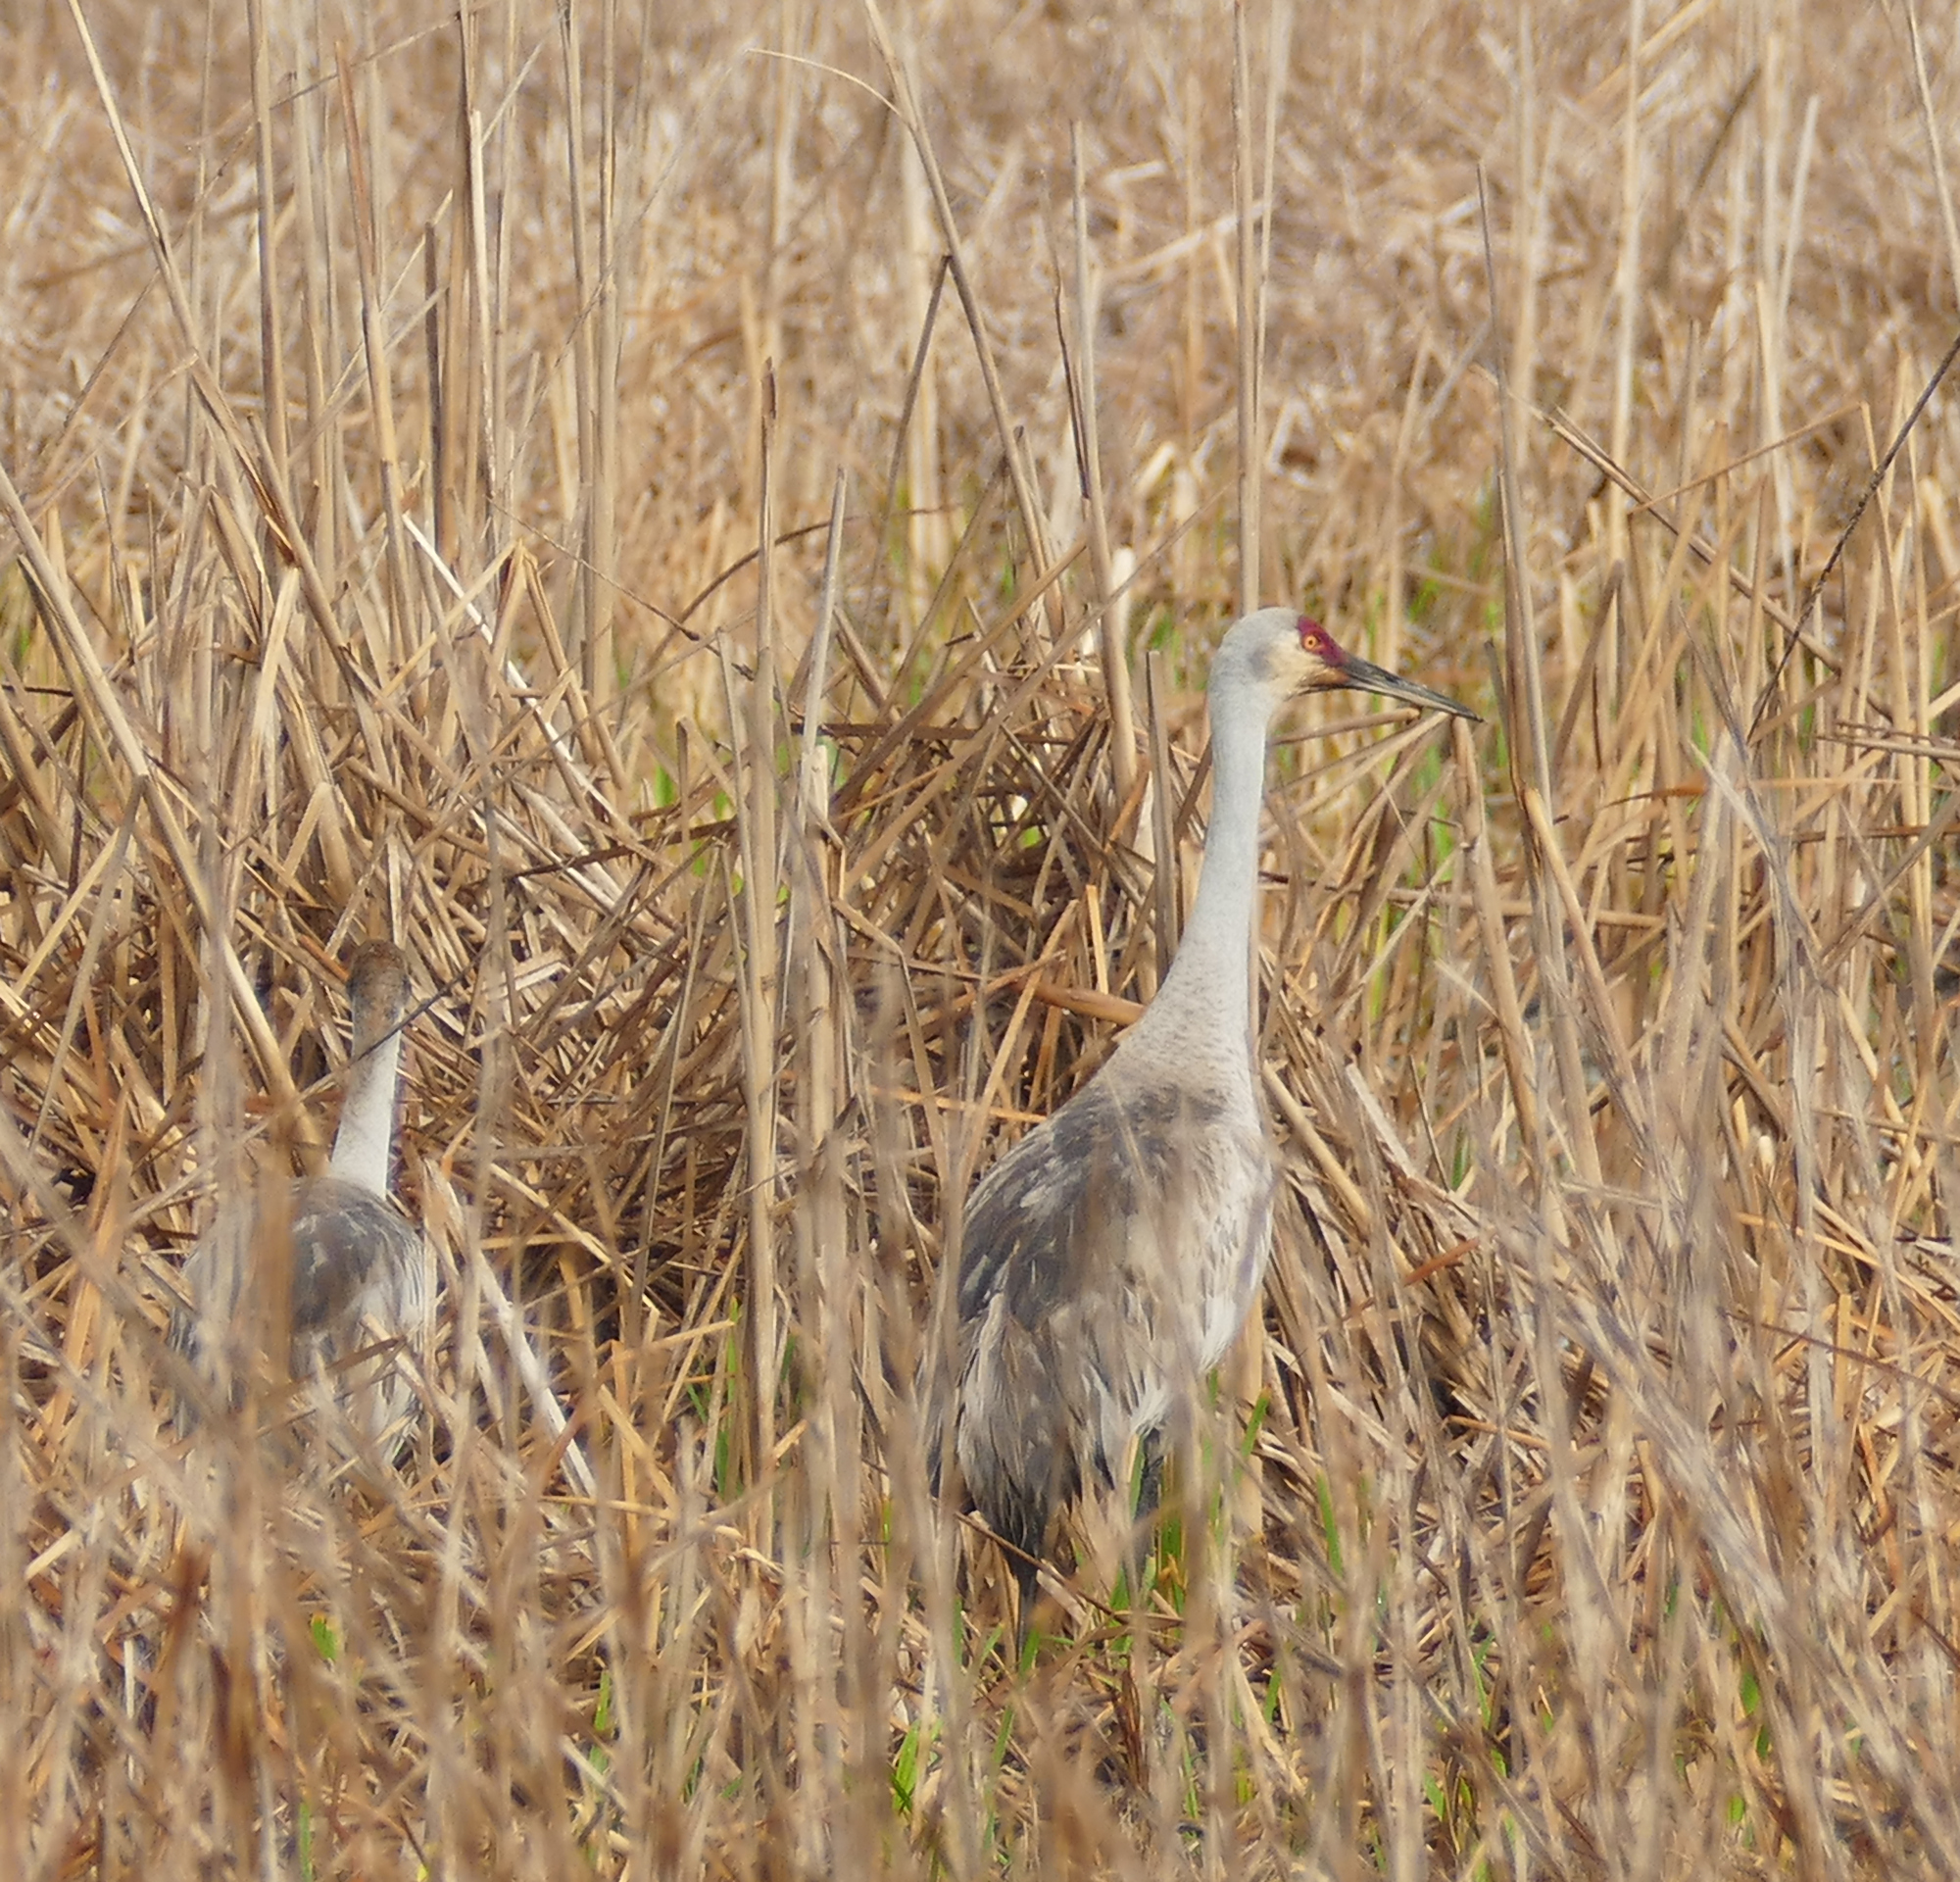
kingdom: Animalia
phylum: Chordata
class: Aves
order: Gruiformes
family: Gruidae
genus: Grus
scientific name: Grus canadensis
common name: Sandhill crane
